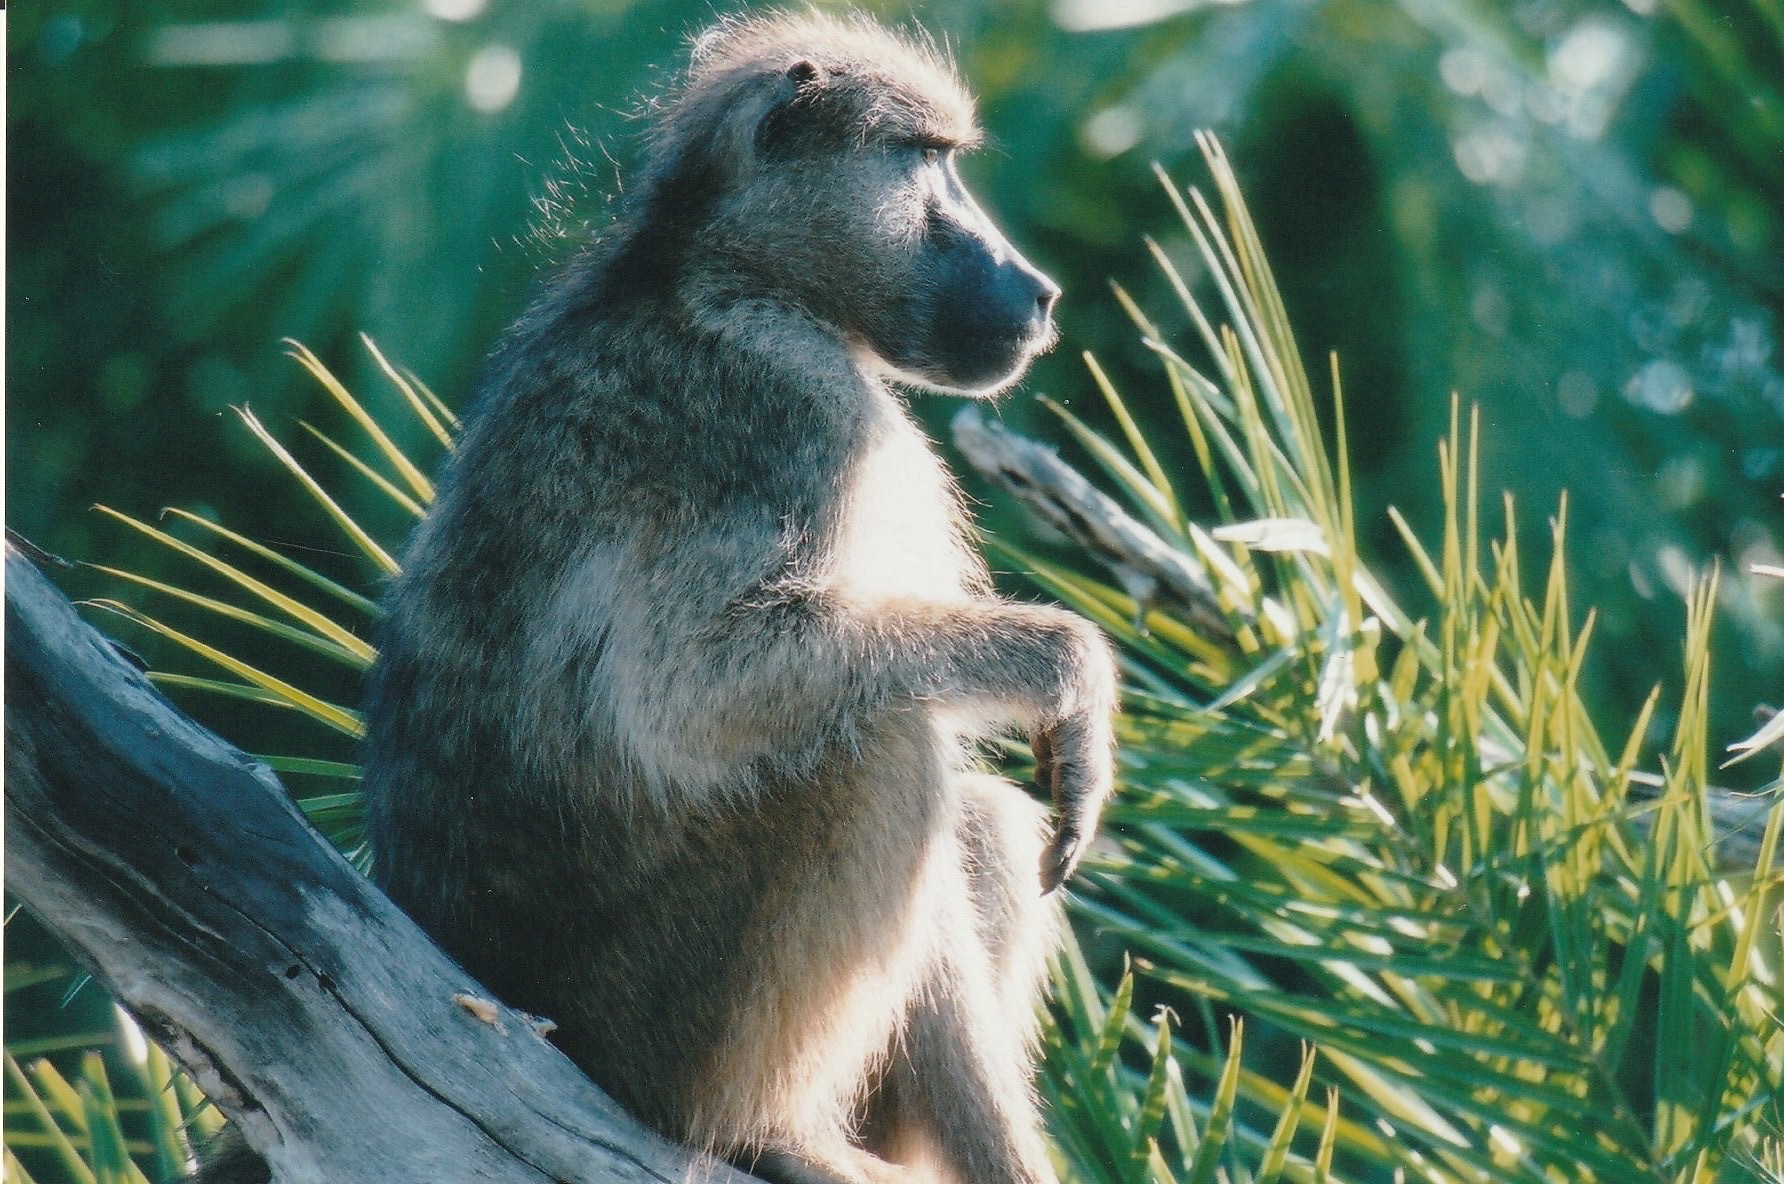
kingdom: Animalia
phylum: Chordata
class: Mammalia
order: Primates
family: Cercopithecidae
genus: Papio
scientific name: Papio ursinus
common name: Chacma baboon
